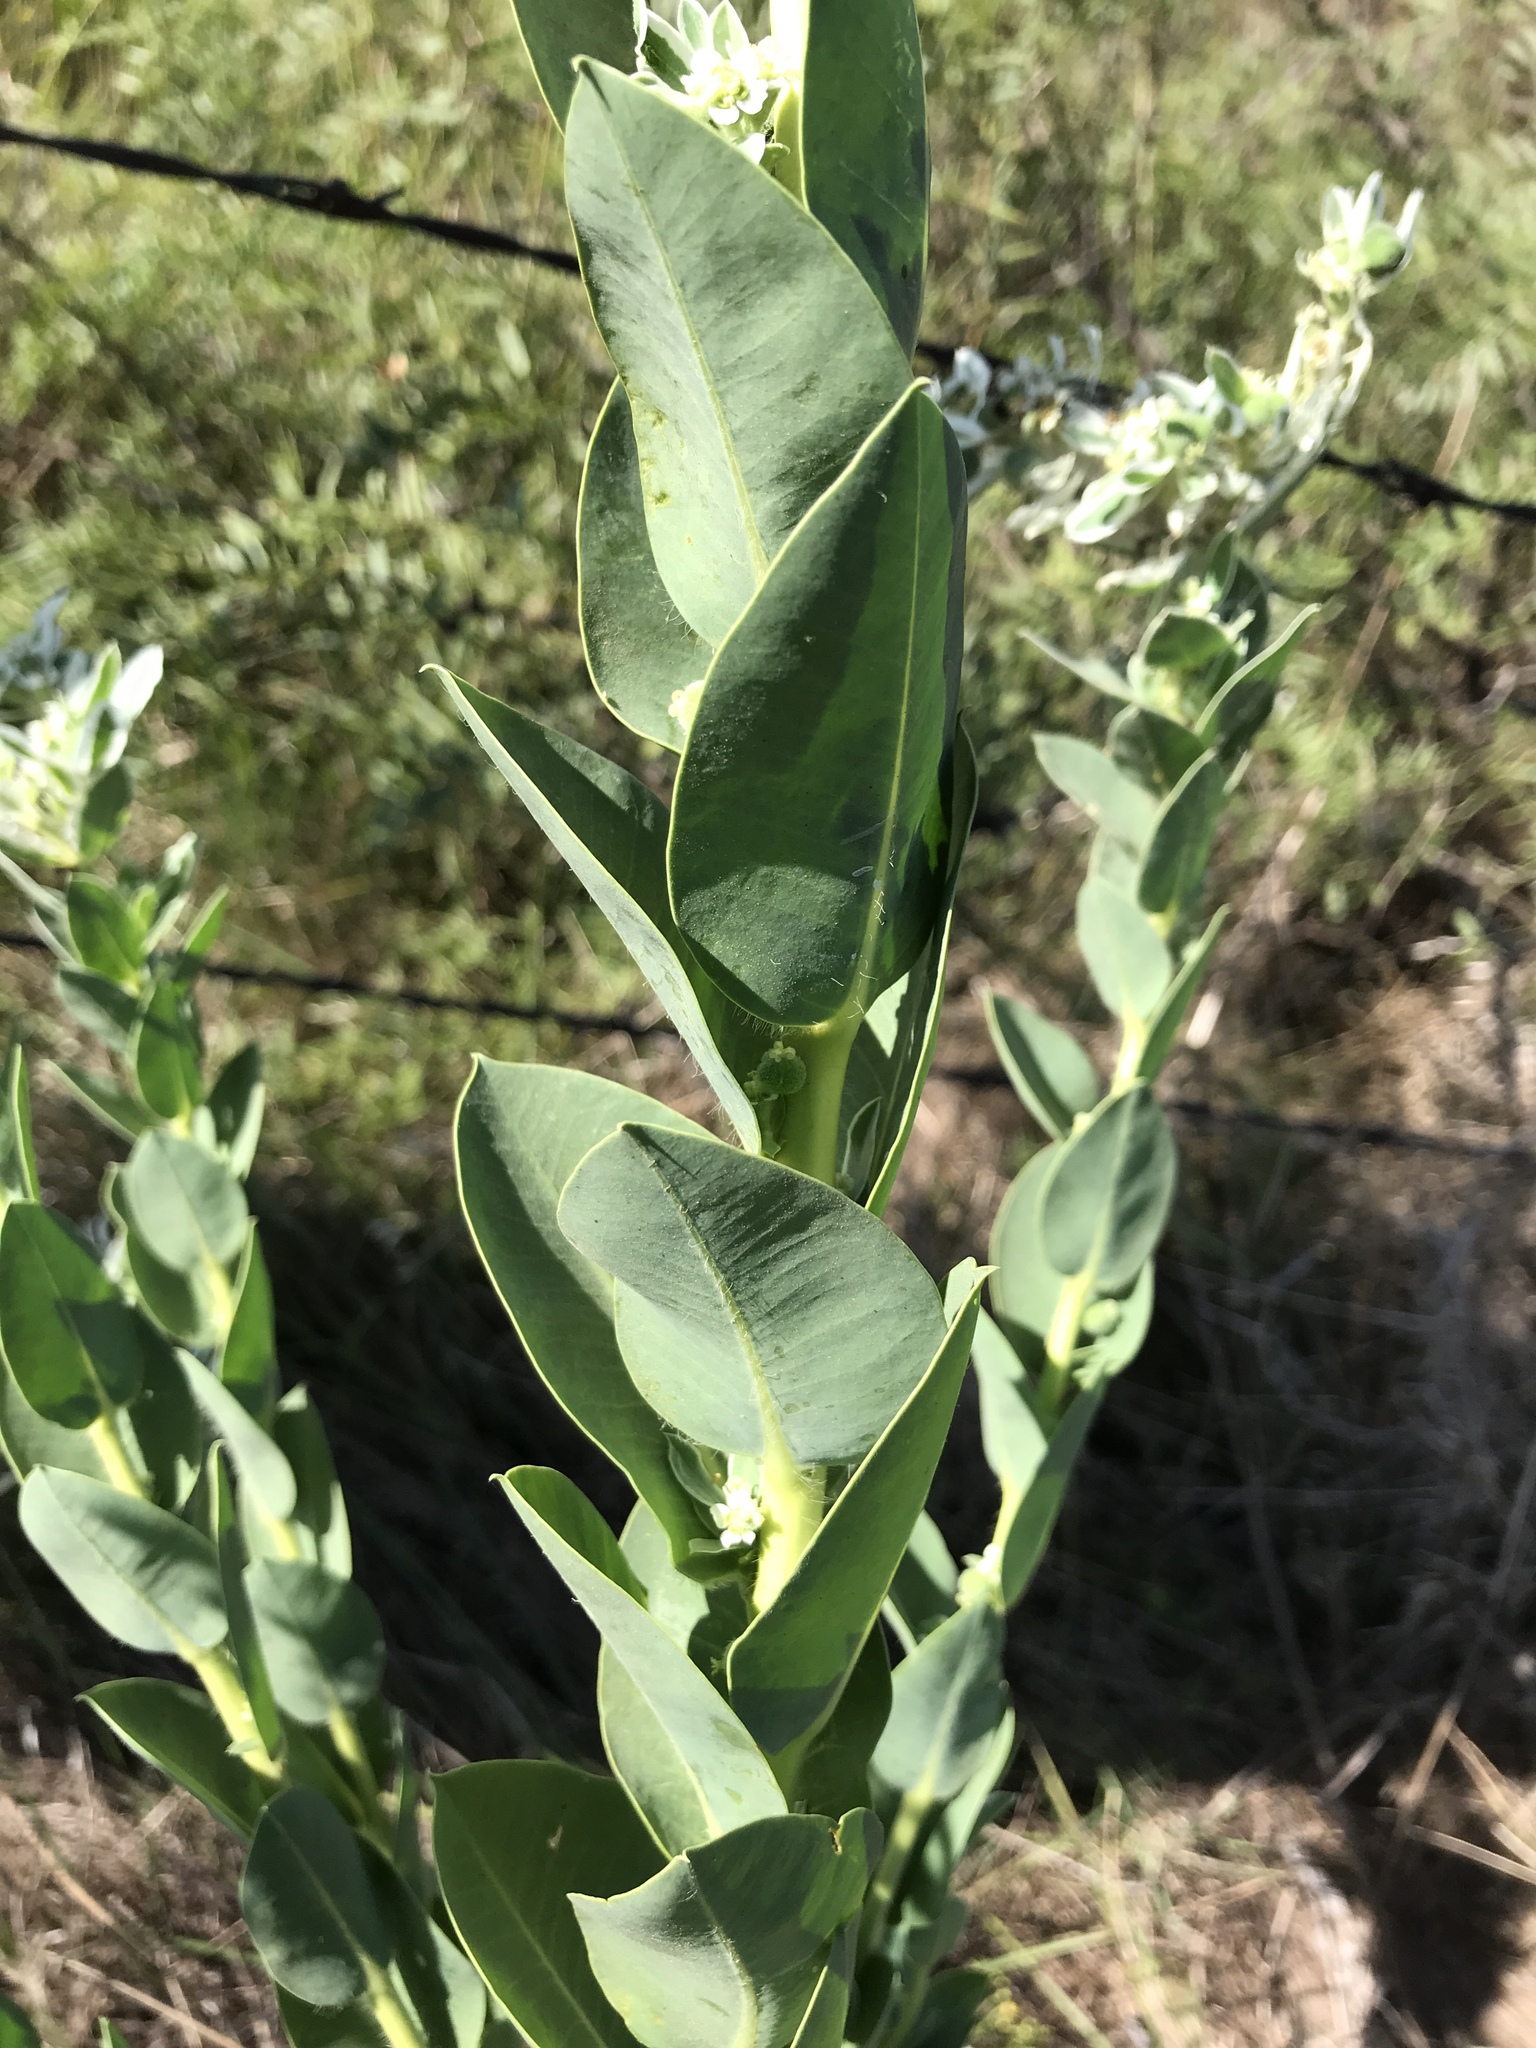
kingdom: Plantae
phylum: Tracheophyta
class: Magnoliopsida
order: Malpighiales
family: Euphorbiaceae
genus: Euphorbia
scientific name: Euphorbia marginata
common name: Ghostweed
